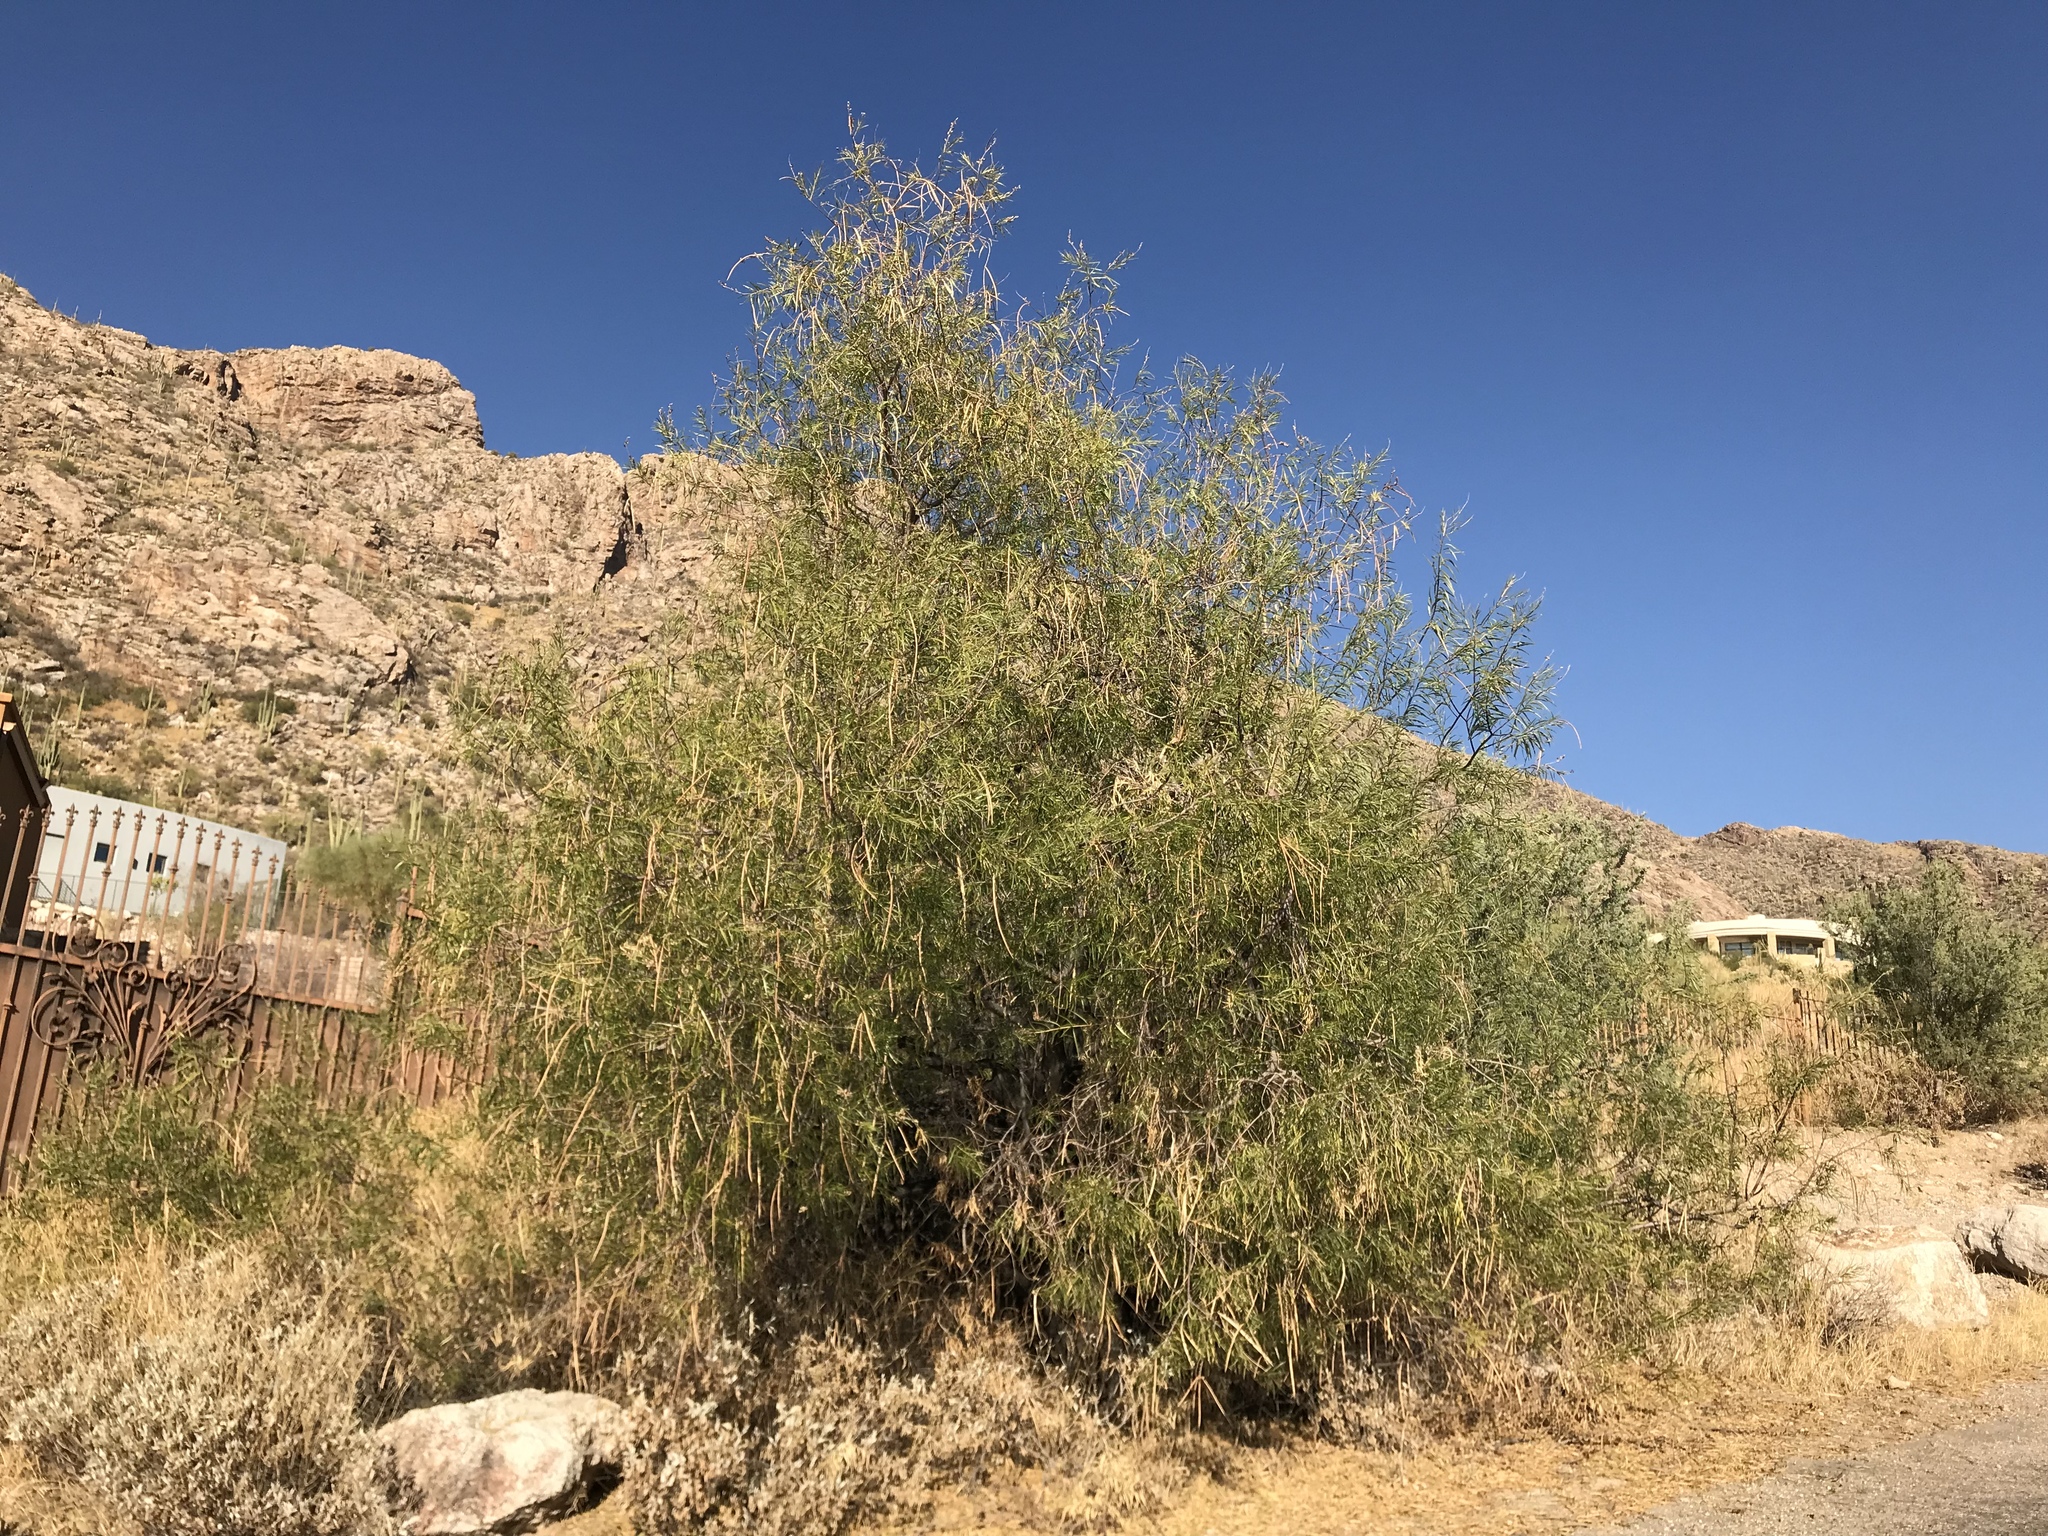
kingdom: Plantae
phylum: Tracheophyta
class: Magnoliopsida
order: Lamiales
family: Bignoniaceae
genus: Chilopsis
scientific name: Chilopsis linearis
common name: Desert-willow
